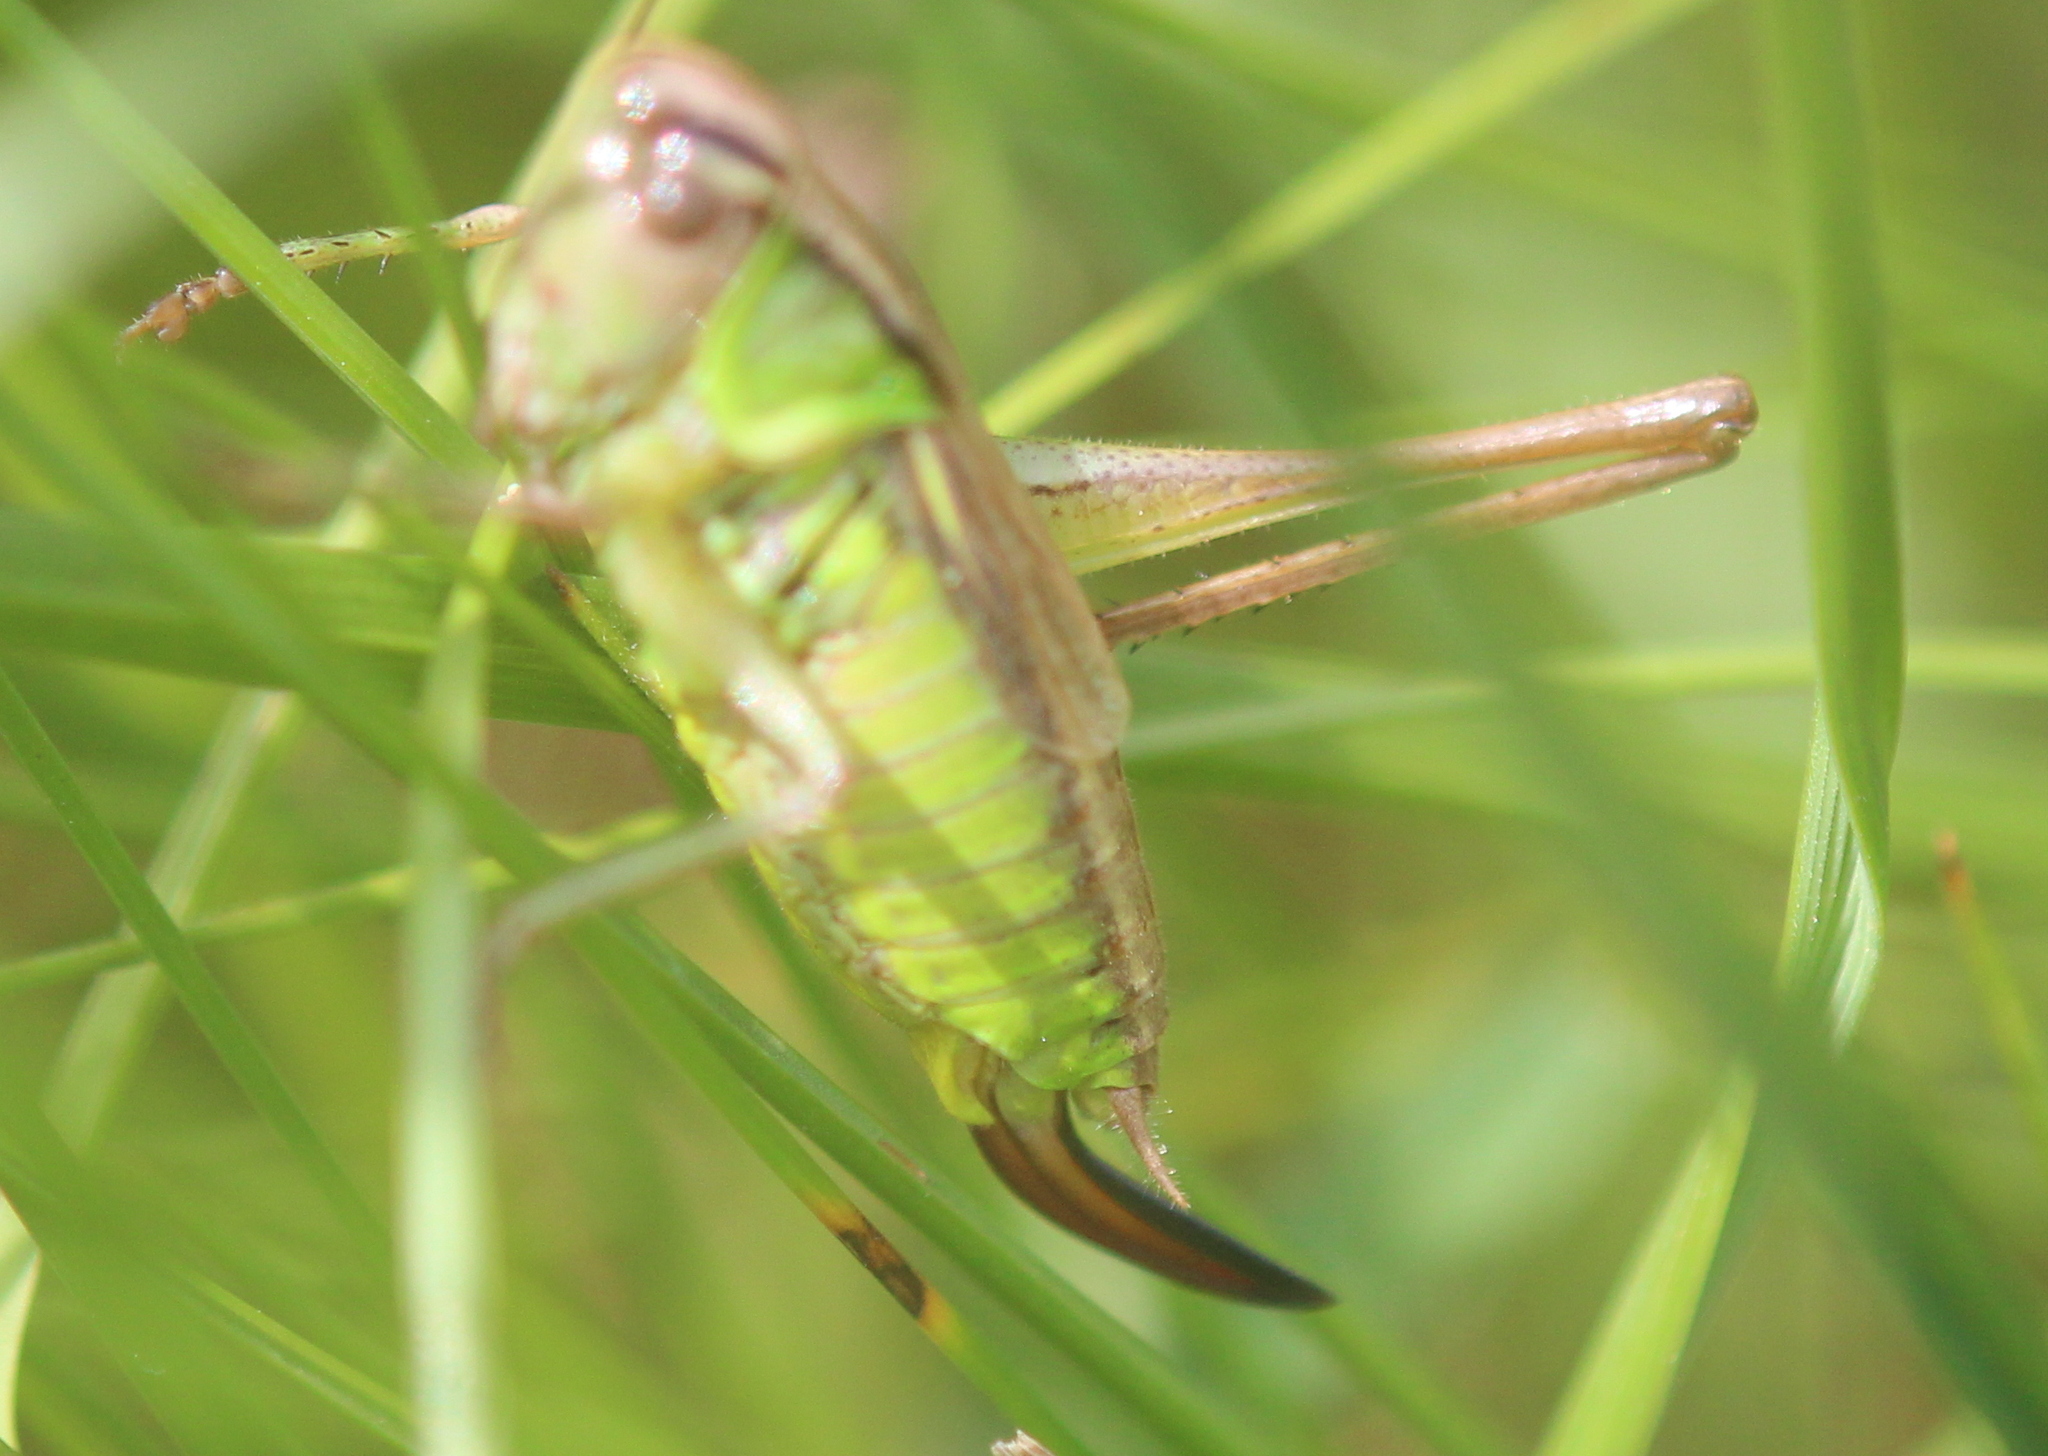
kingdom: Animalia
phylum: Arthropoda
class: Insecta
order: Orthoptera
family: Tettigoniidae
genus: Roeseliana
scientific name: Roeseliana roeselii
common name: Roesel's bush cricket
